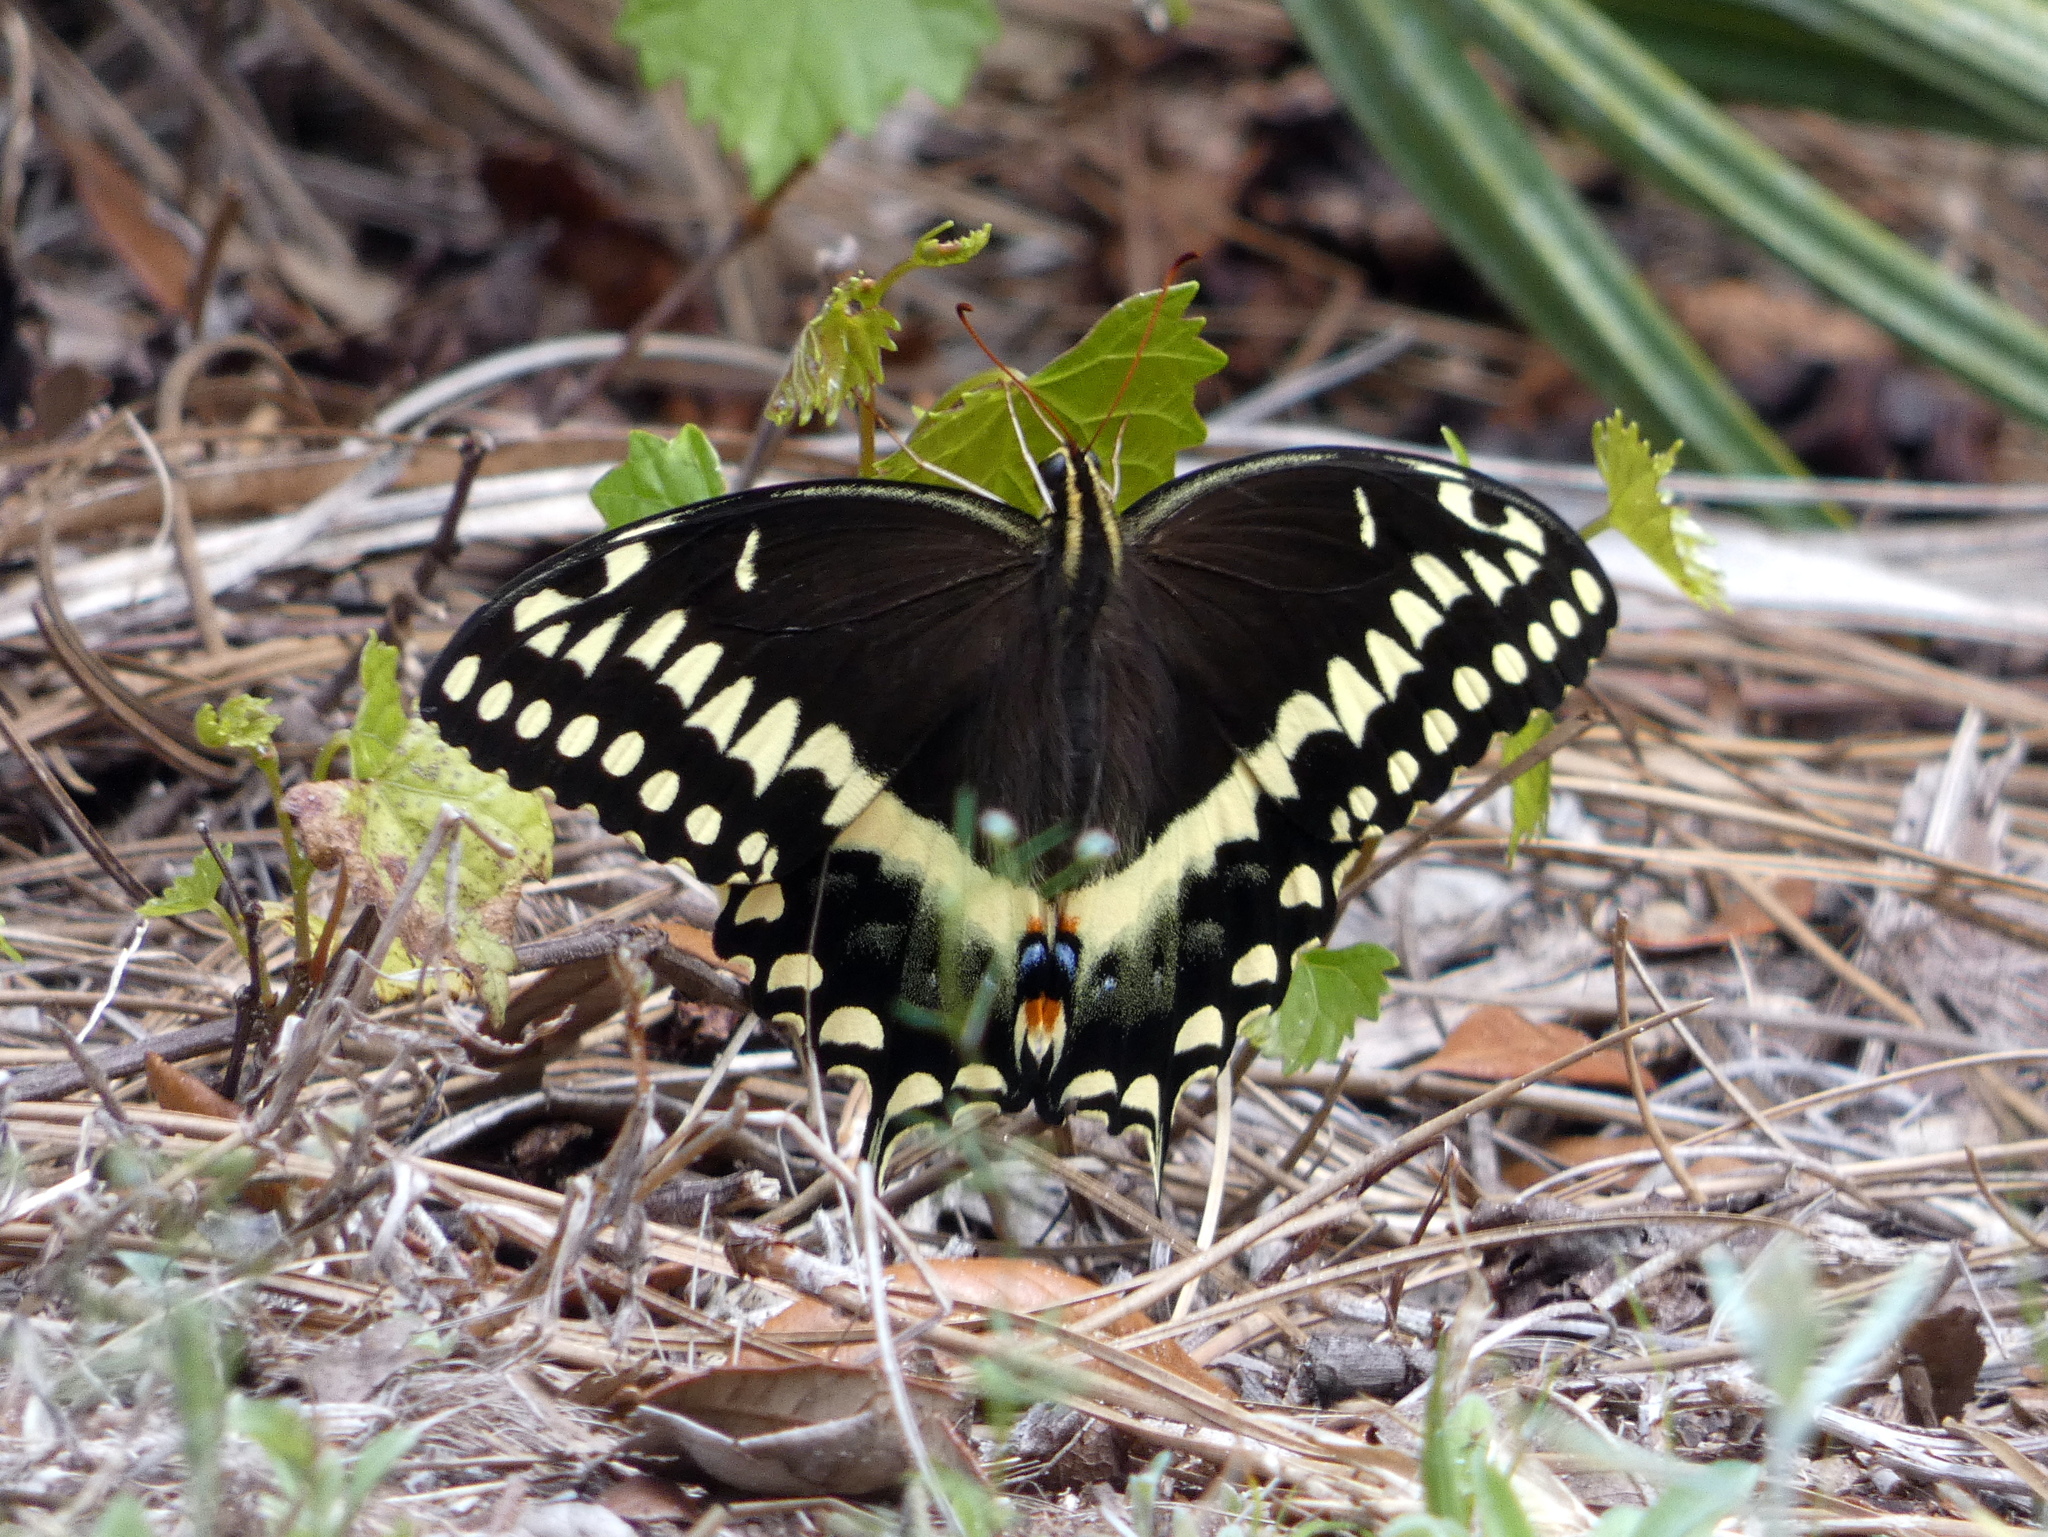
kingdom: Animalia
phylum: Arthropoda
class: Insecta
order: Lepidoptera
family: Papilionidae
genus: Papilio
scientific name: Papilio palamedes
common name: Palamedes swallowtail
